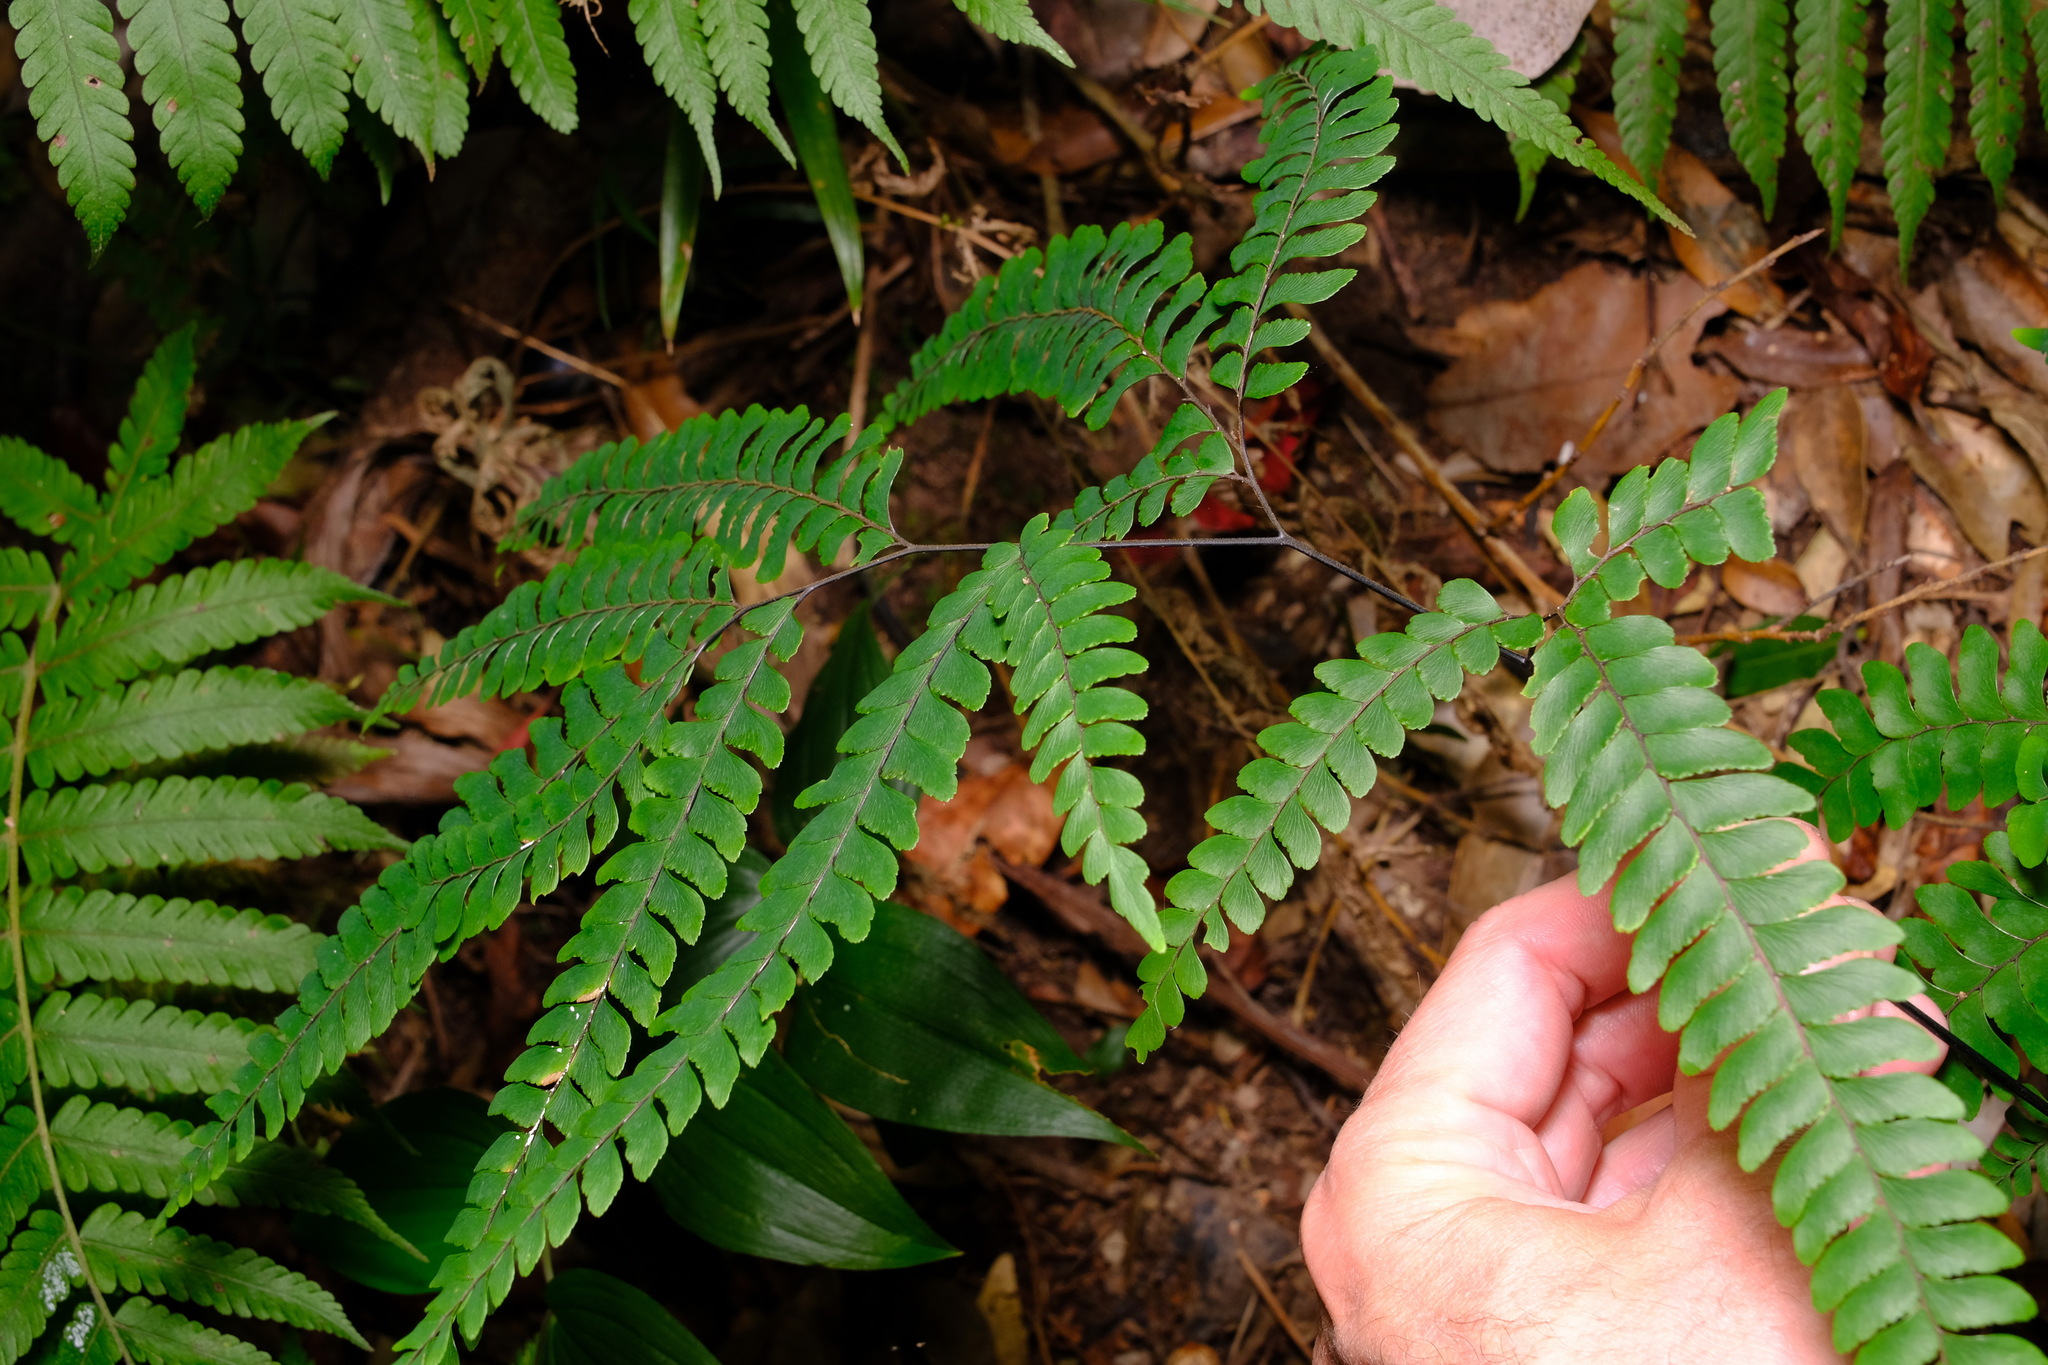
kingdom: Plantae
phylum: Tracheophyta
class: Polypodiopsida
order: Polypodiales
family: Pteridaceae
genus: Adiantum
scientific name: Adiantum hispidulum
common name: Rough maidenhair
